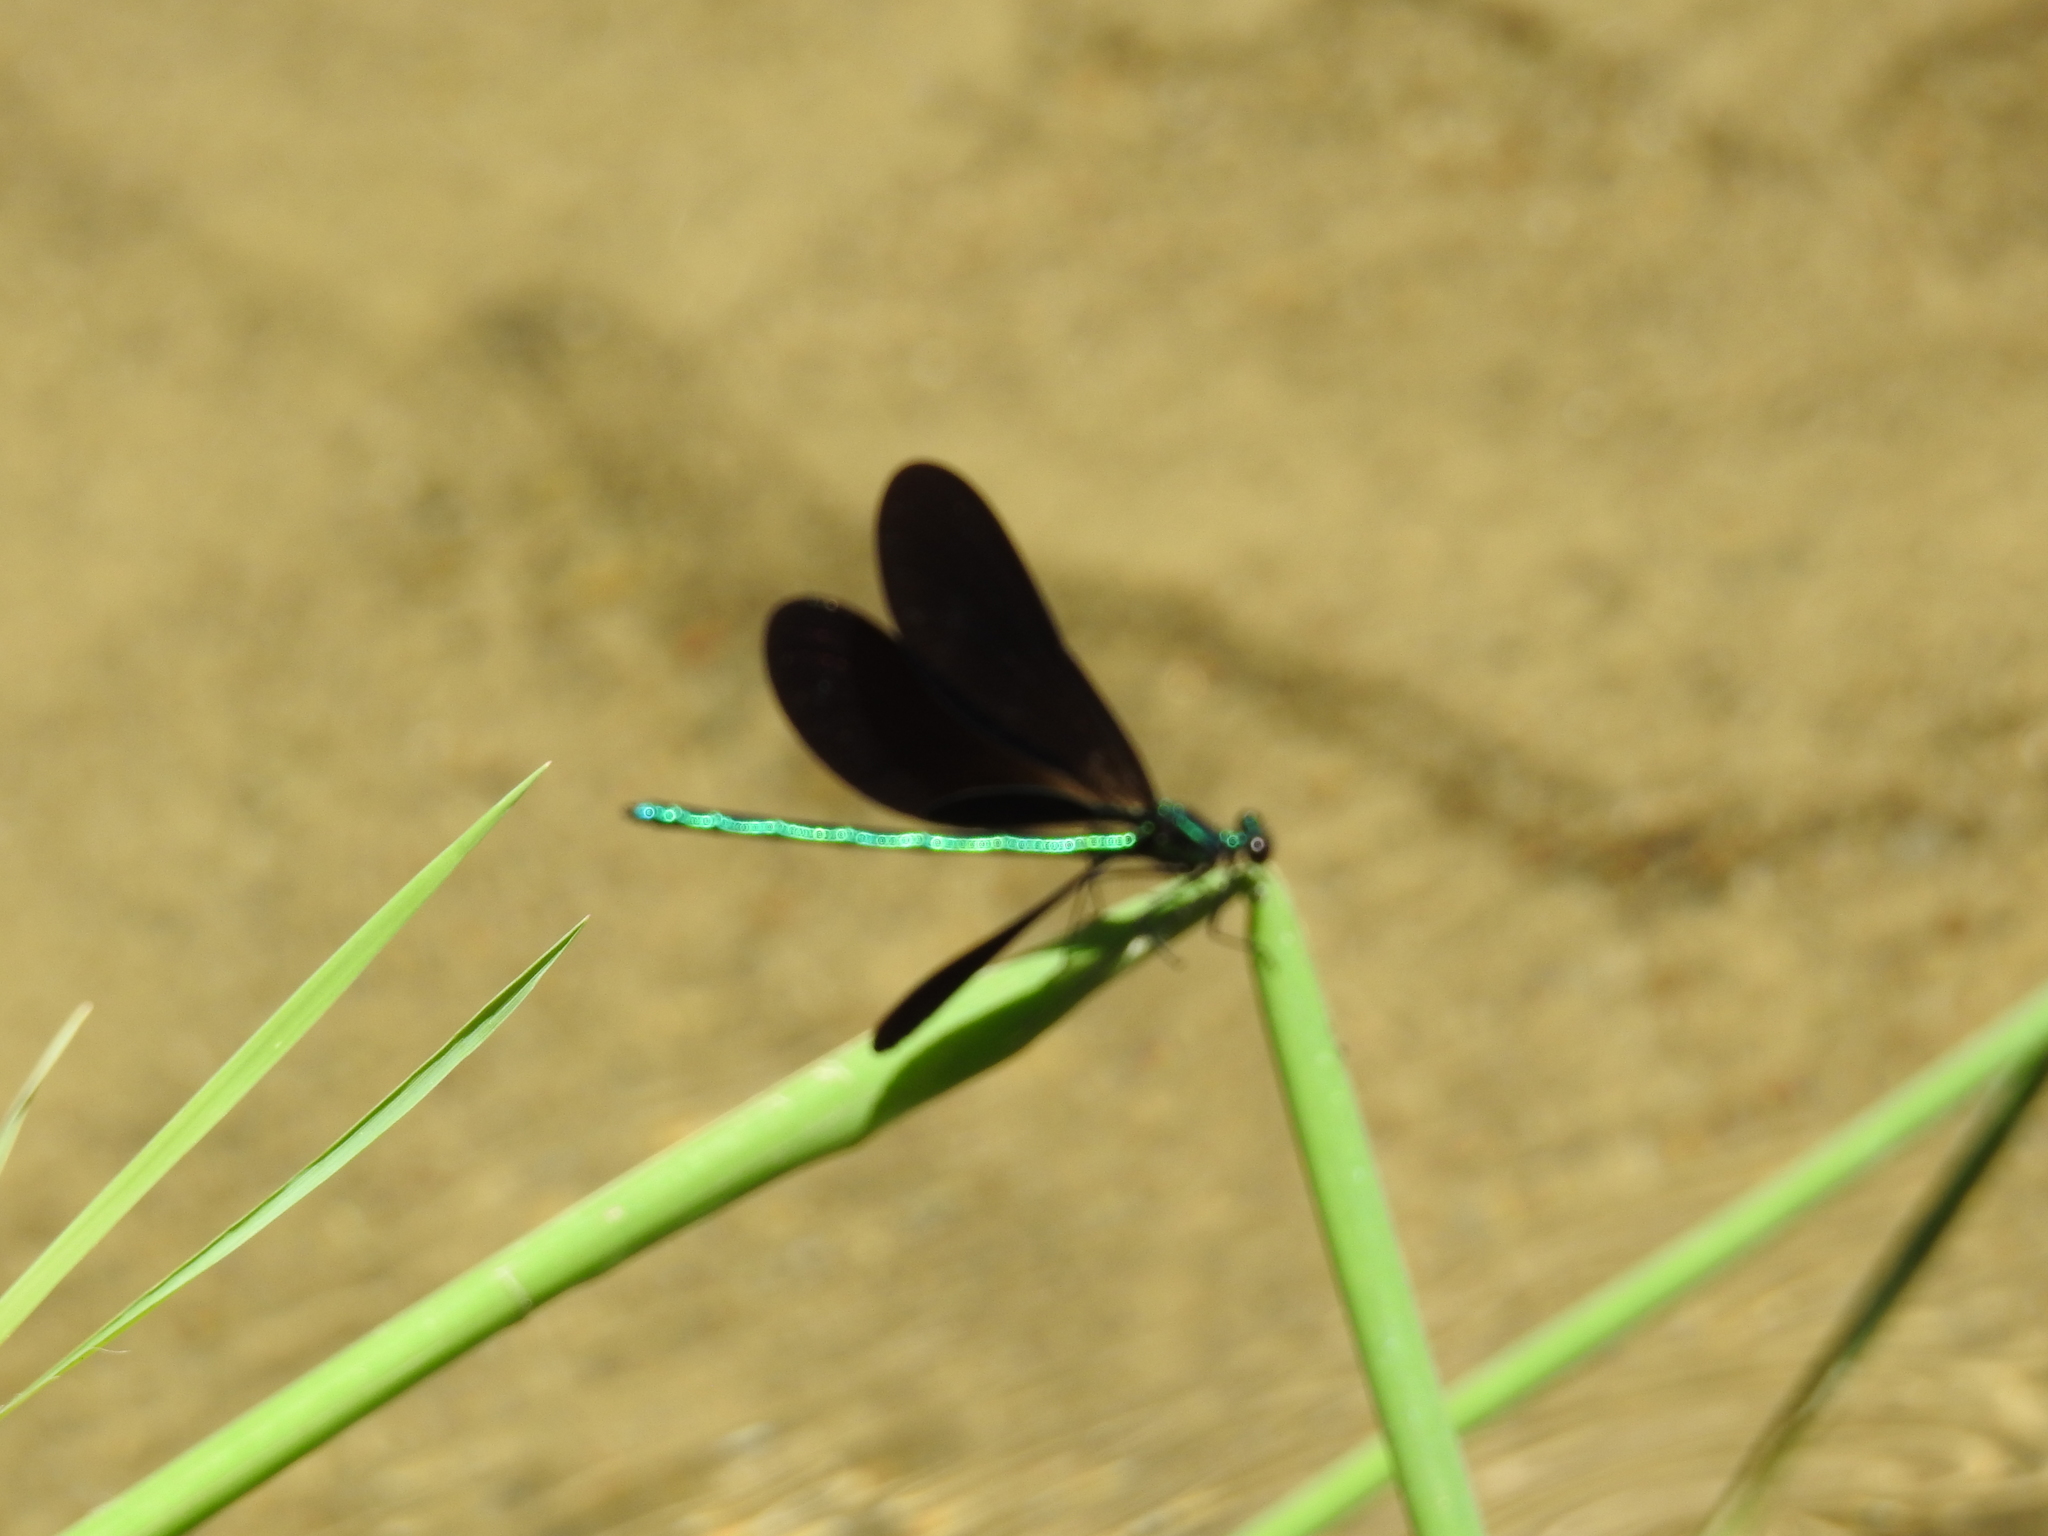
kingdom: Animalia
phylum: Arthropoda
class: Insecta
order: Odonata
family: Calopterygidae
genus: Calopteryx
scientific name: Calopteryx maculata
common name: Ebony jewelwing
